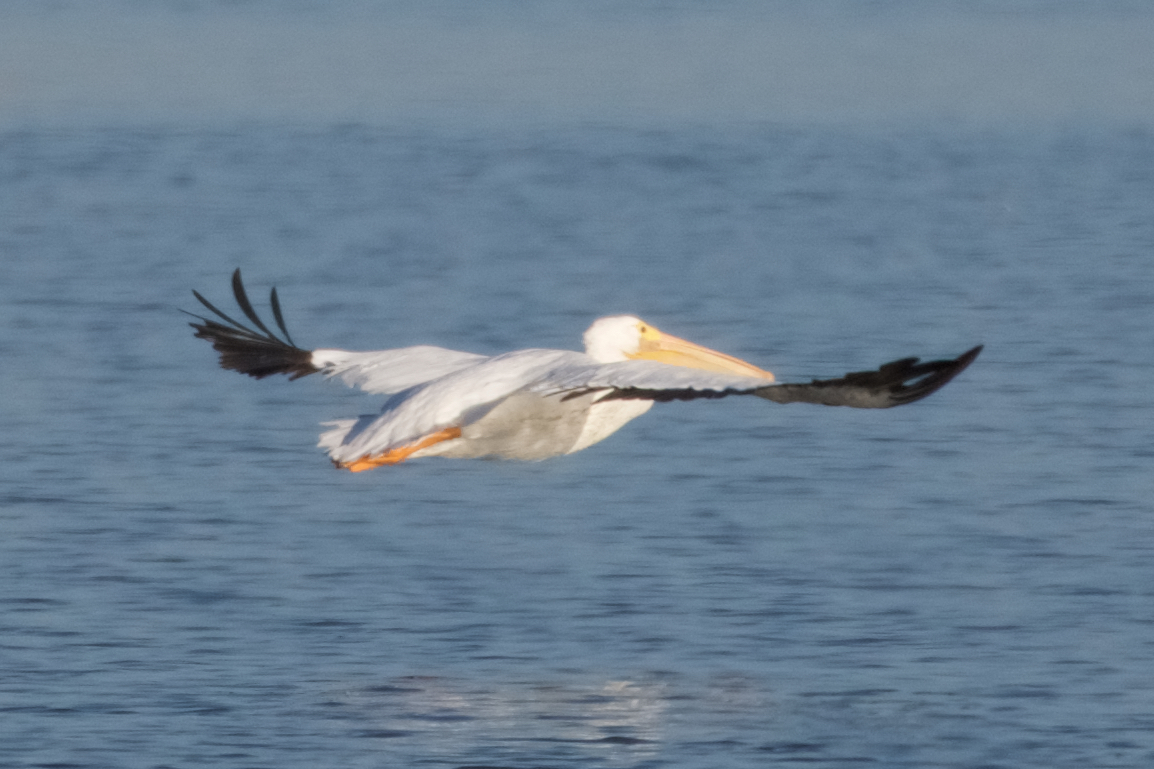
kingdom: Animalia
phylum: Chordata
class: Aves
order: Pelecaniformes
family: Pelecanidae
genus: Pelecanus
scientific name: Pelecanus erythrorhynchos
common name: American white pelican
